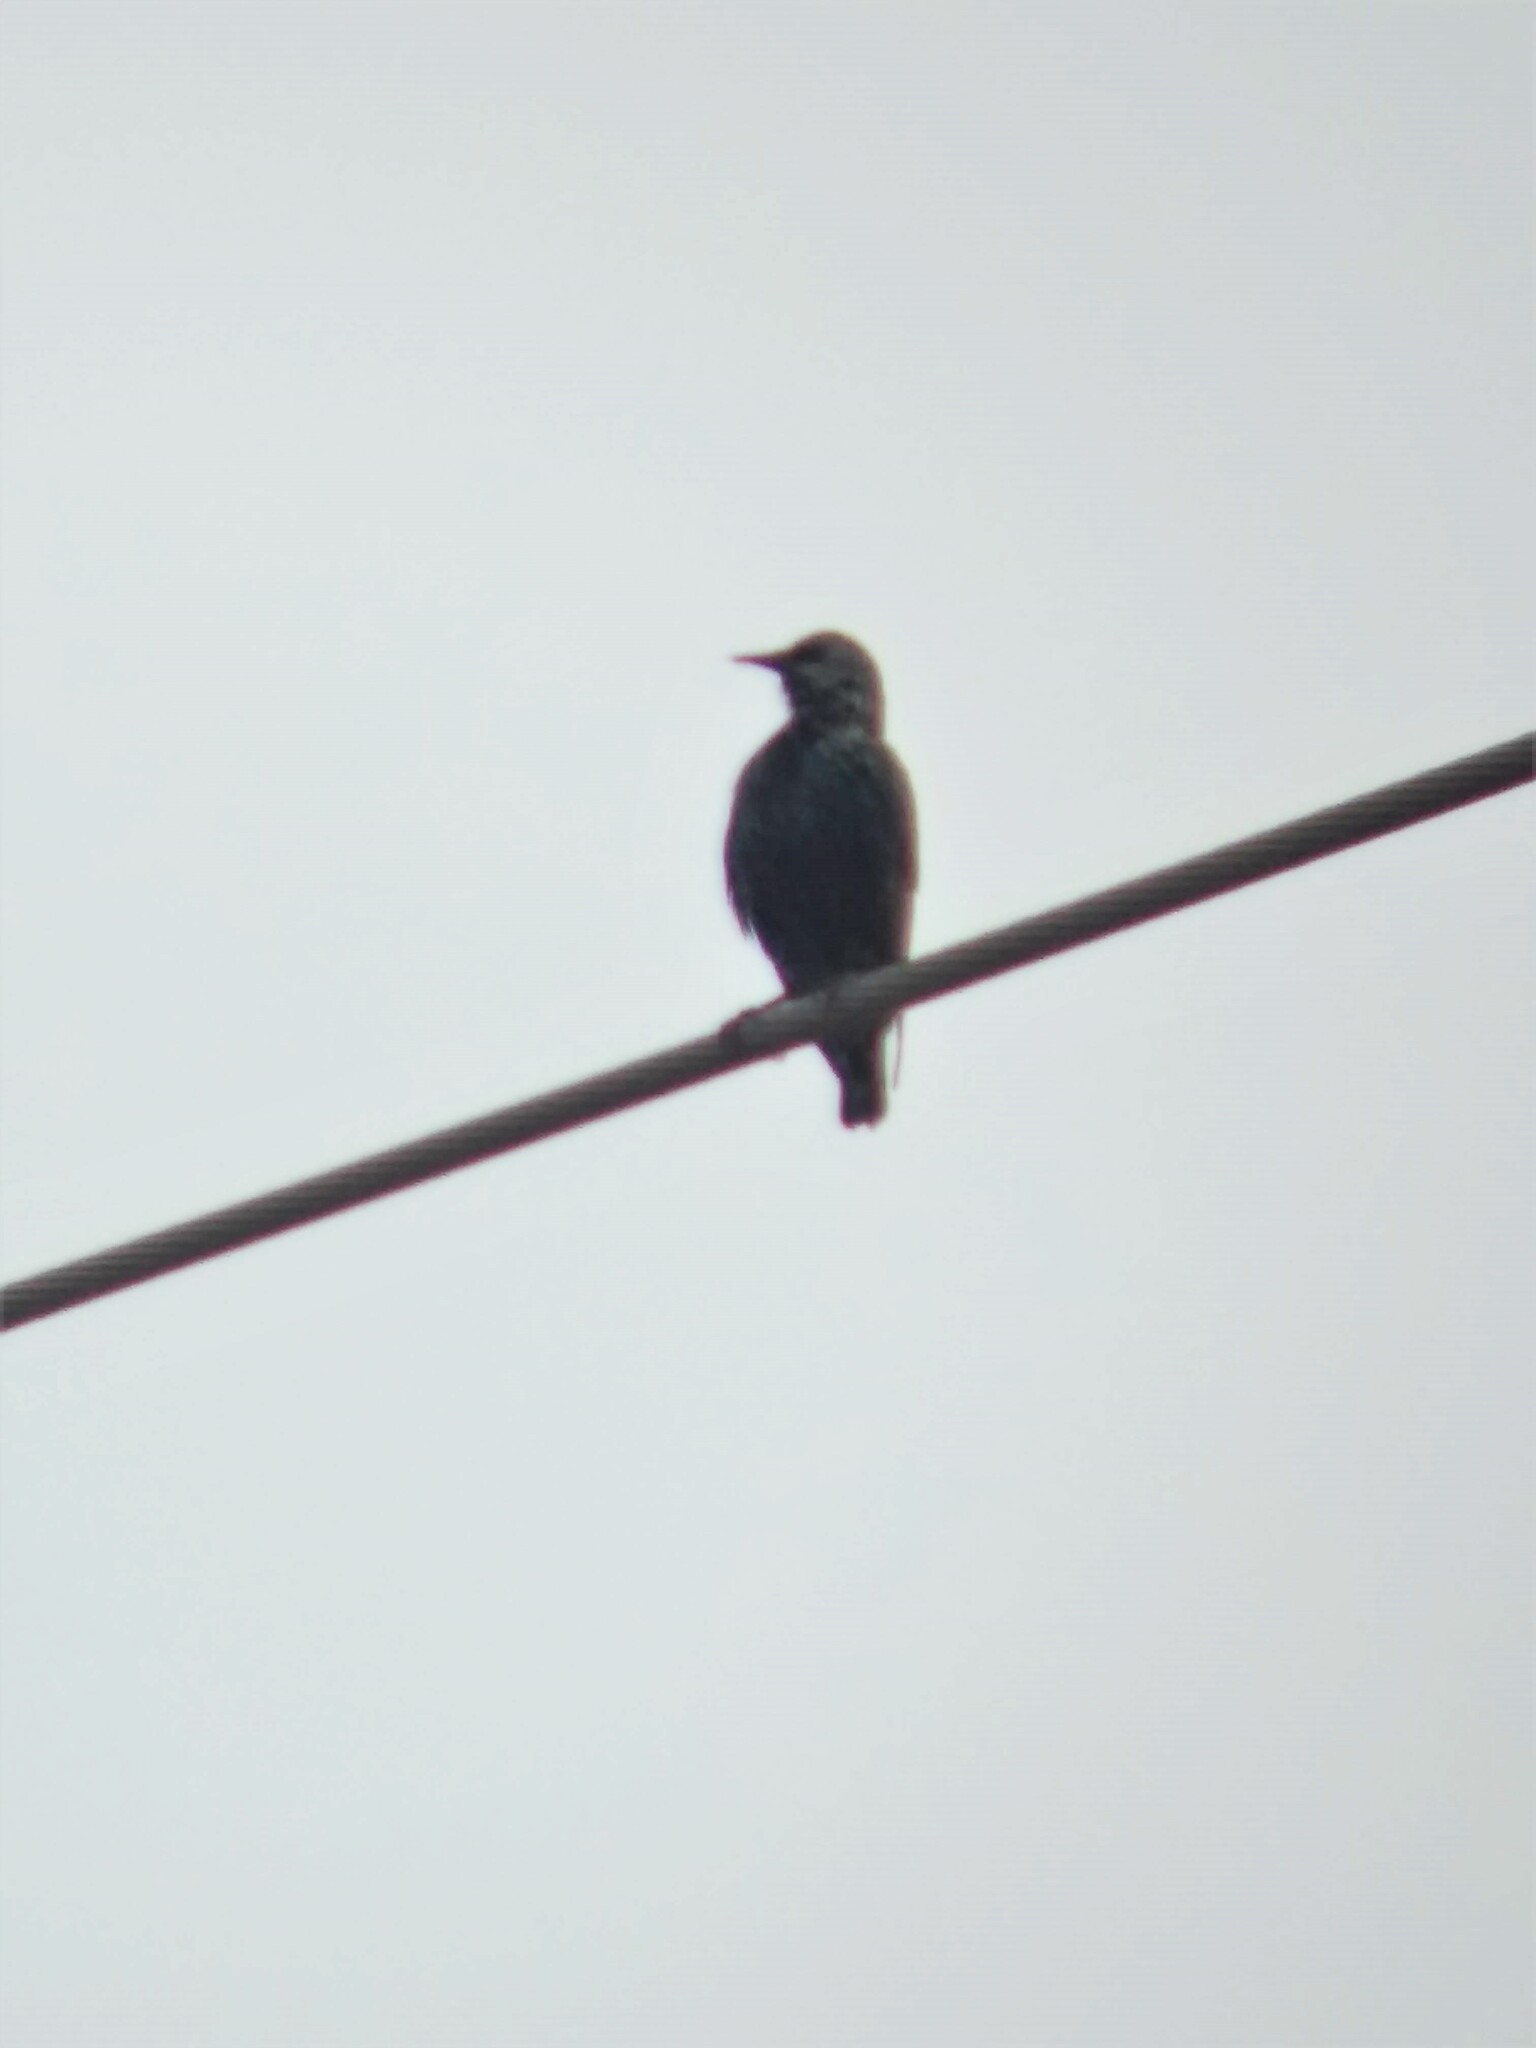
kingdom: Animalia
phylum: Chordata
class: Aves
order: Passeriformes
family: Sturnidae
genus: Sturnus
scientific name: Sturnus vulgaris
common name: Common starling
